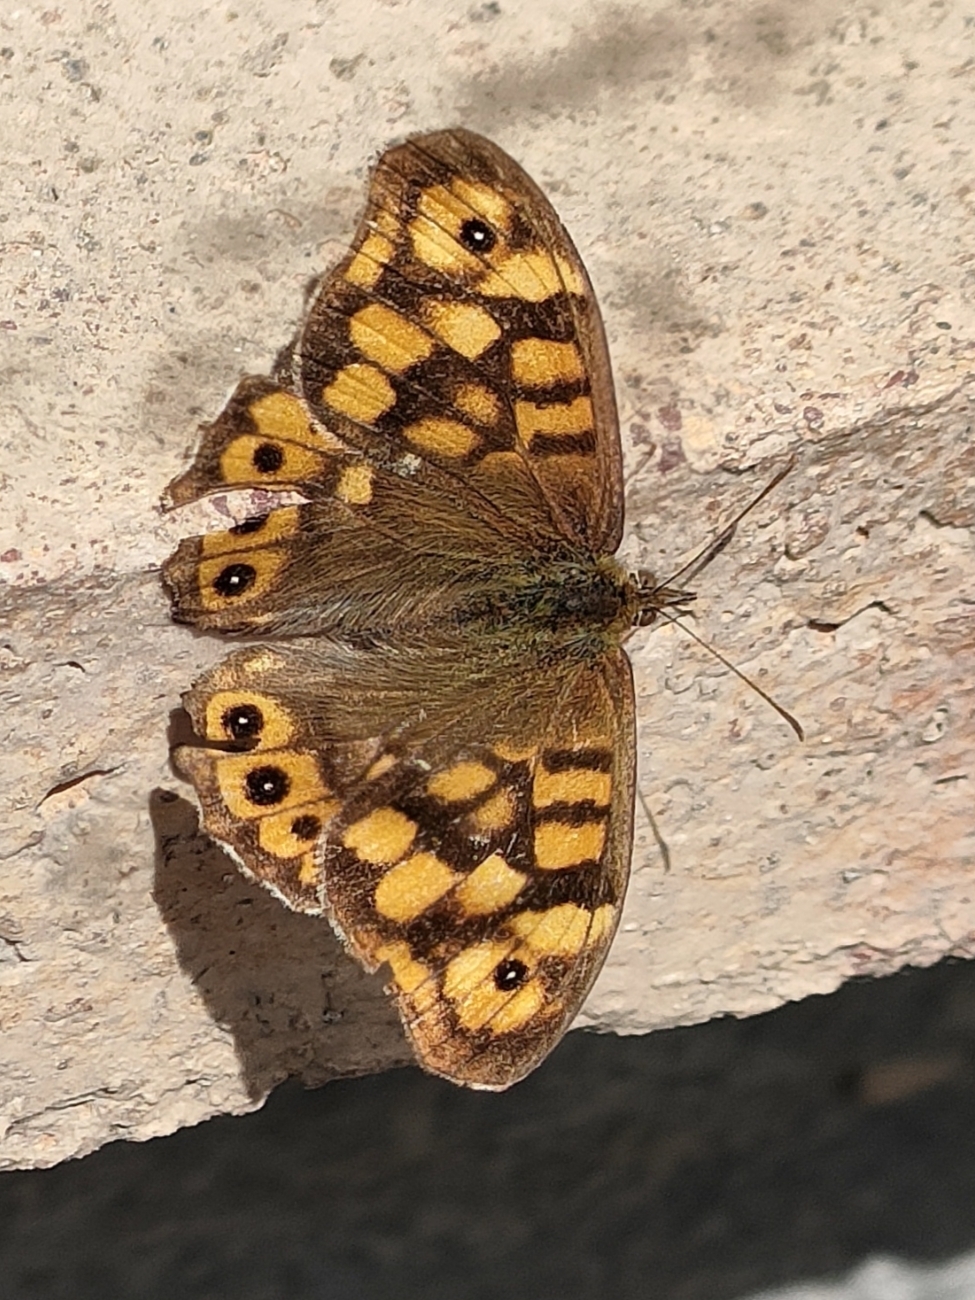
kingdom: Animalia
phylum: Arthropoda
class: Insecta
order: Lepidoptera
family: Nymphalidae
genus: Pararge
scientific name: Pararge aegeria
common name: Speckled wood
